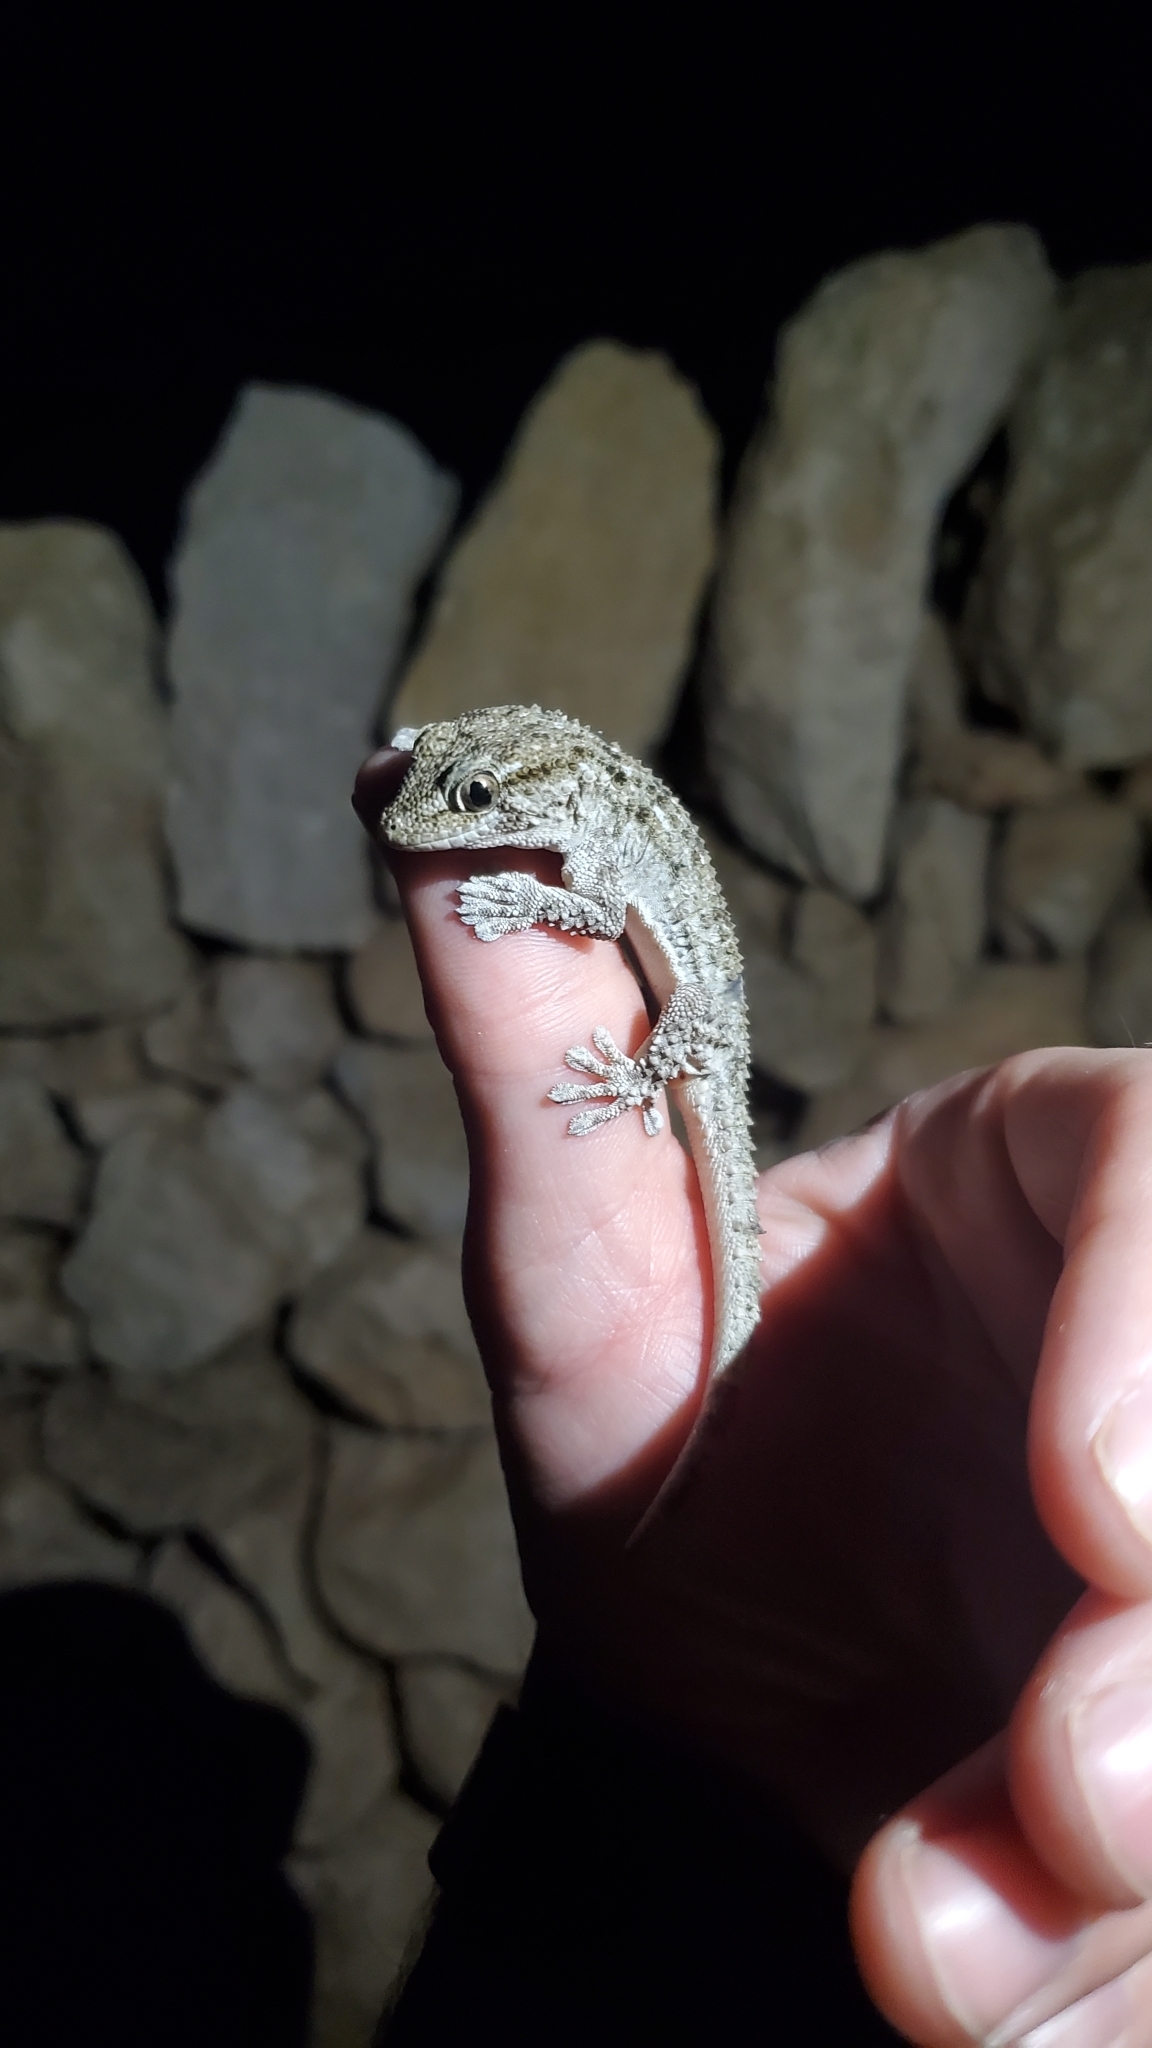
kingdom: Animalia
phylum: Chordata
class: Squamata
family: Phyllodactylidae
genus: Tarentola
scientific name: Tarentola mauritanica
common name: Moorish gecko
